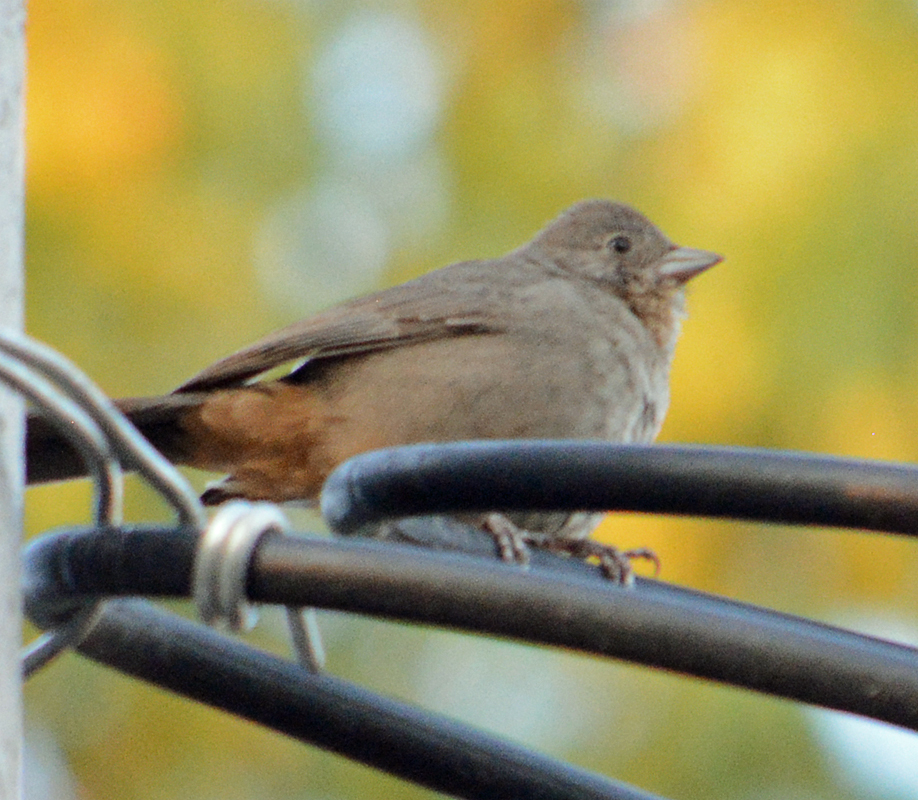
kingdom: Animalia
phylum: Chordata
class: Aves
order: Passeriformes
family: Passerellidae
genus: Melozone
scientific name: Melozone fusca
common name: Canyon towhee
